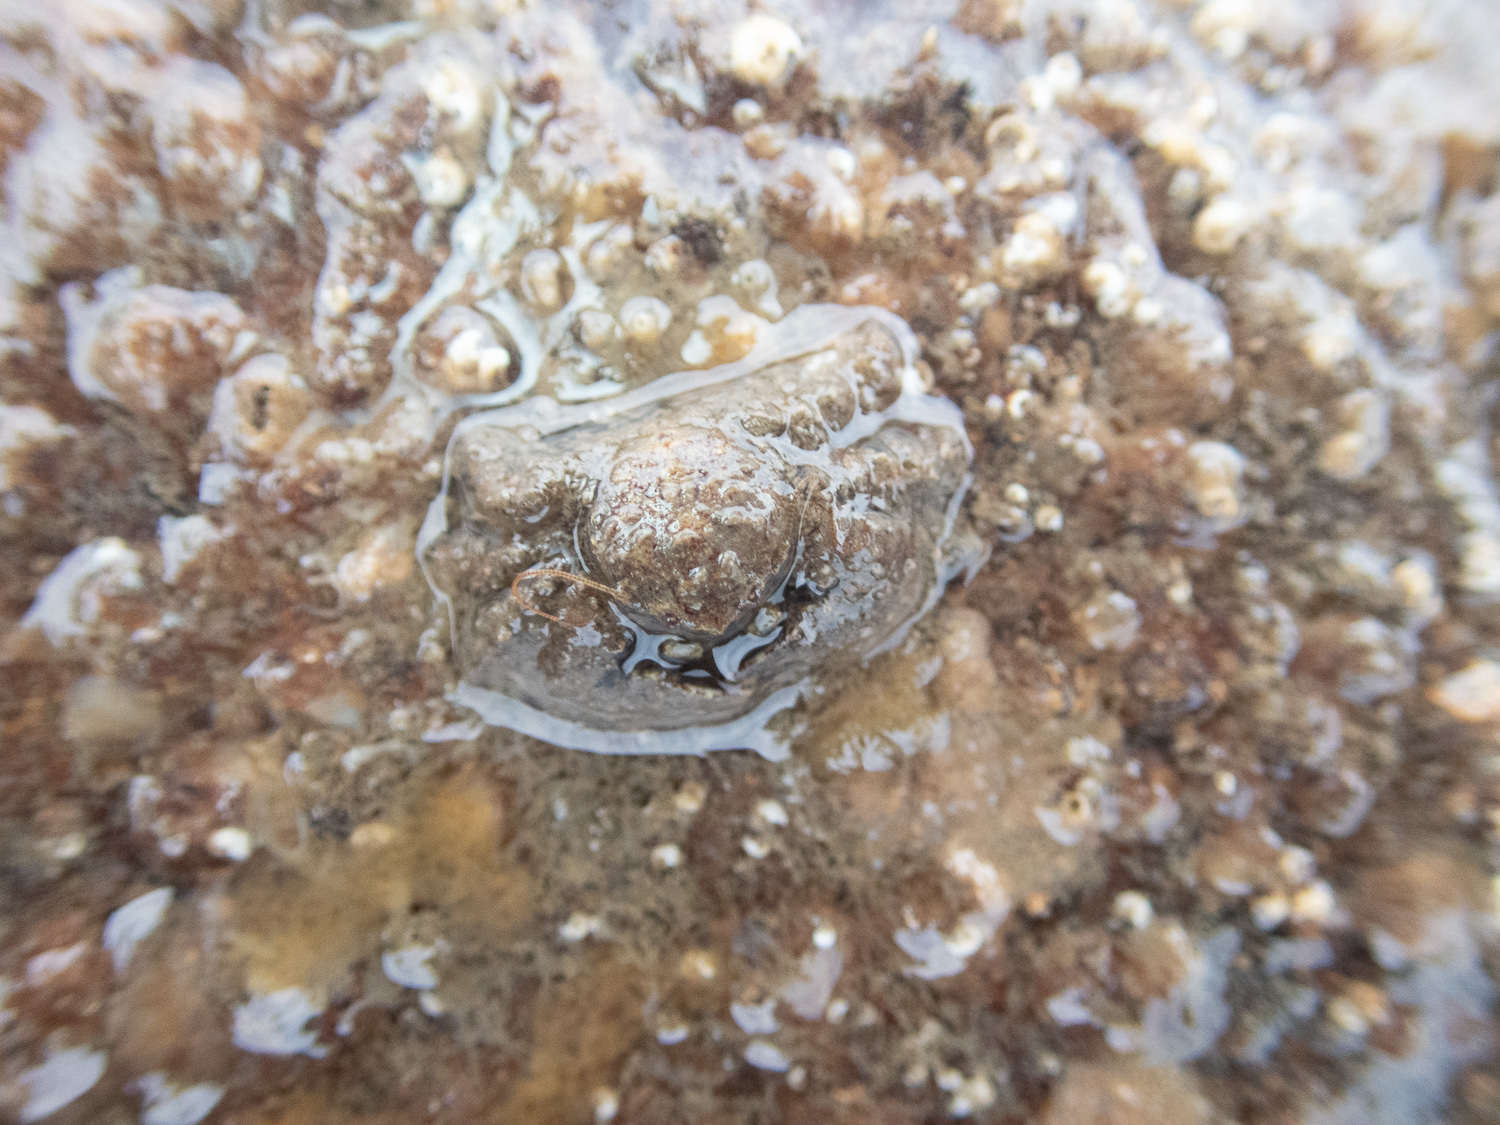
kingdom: Animalia
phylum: Arthropoda
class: Malacostraca
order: Decapoda
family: Porcellanidae
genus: Porcellana
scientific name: Porcellana platycheles
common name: Porcelain crab
